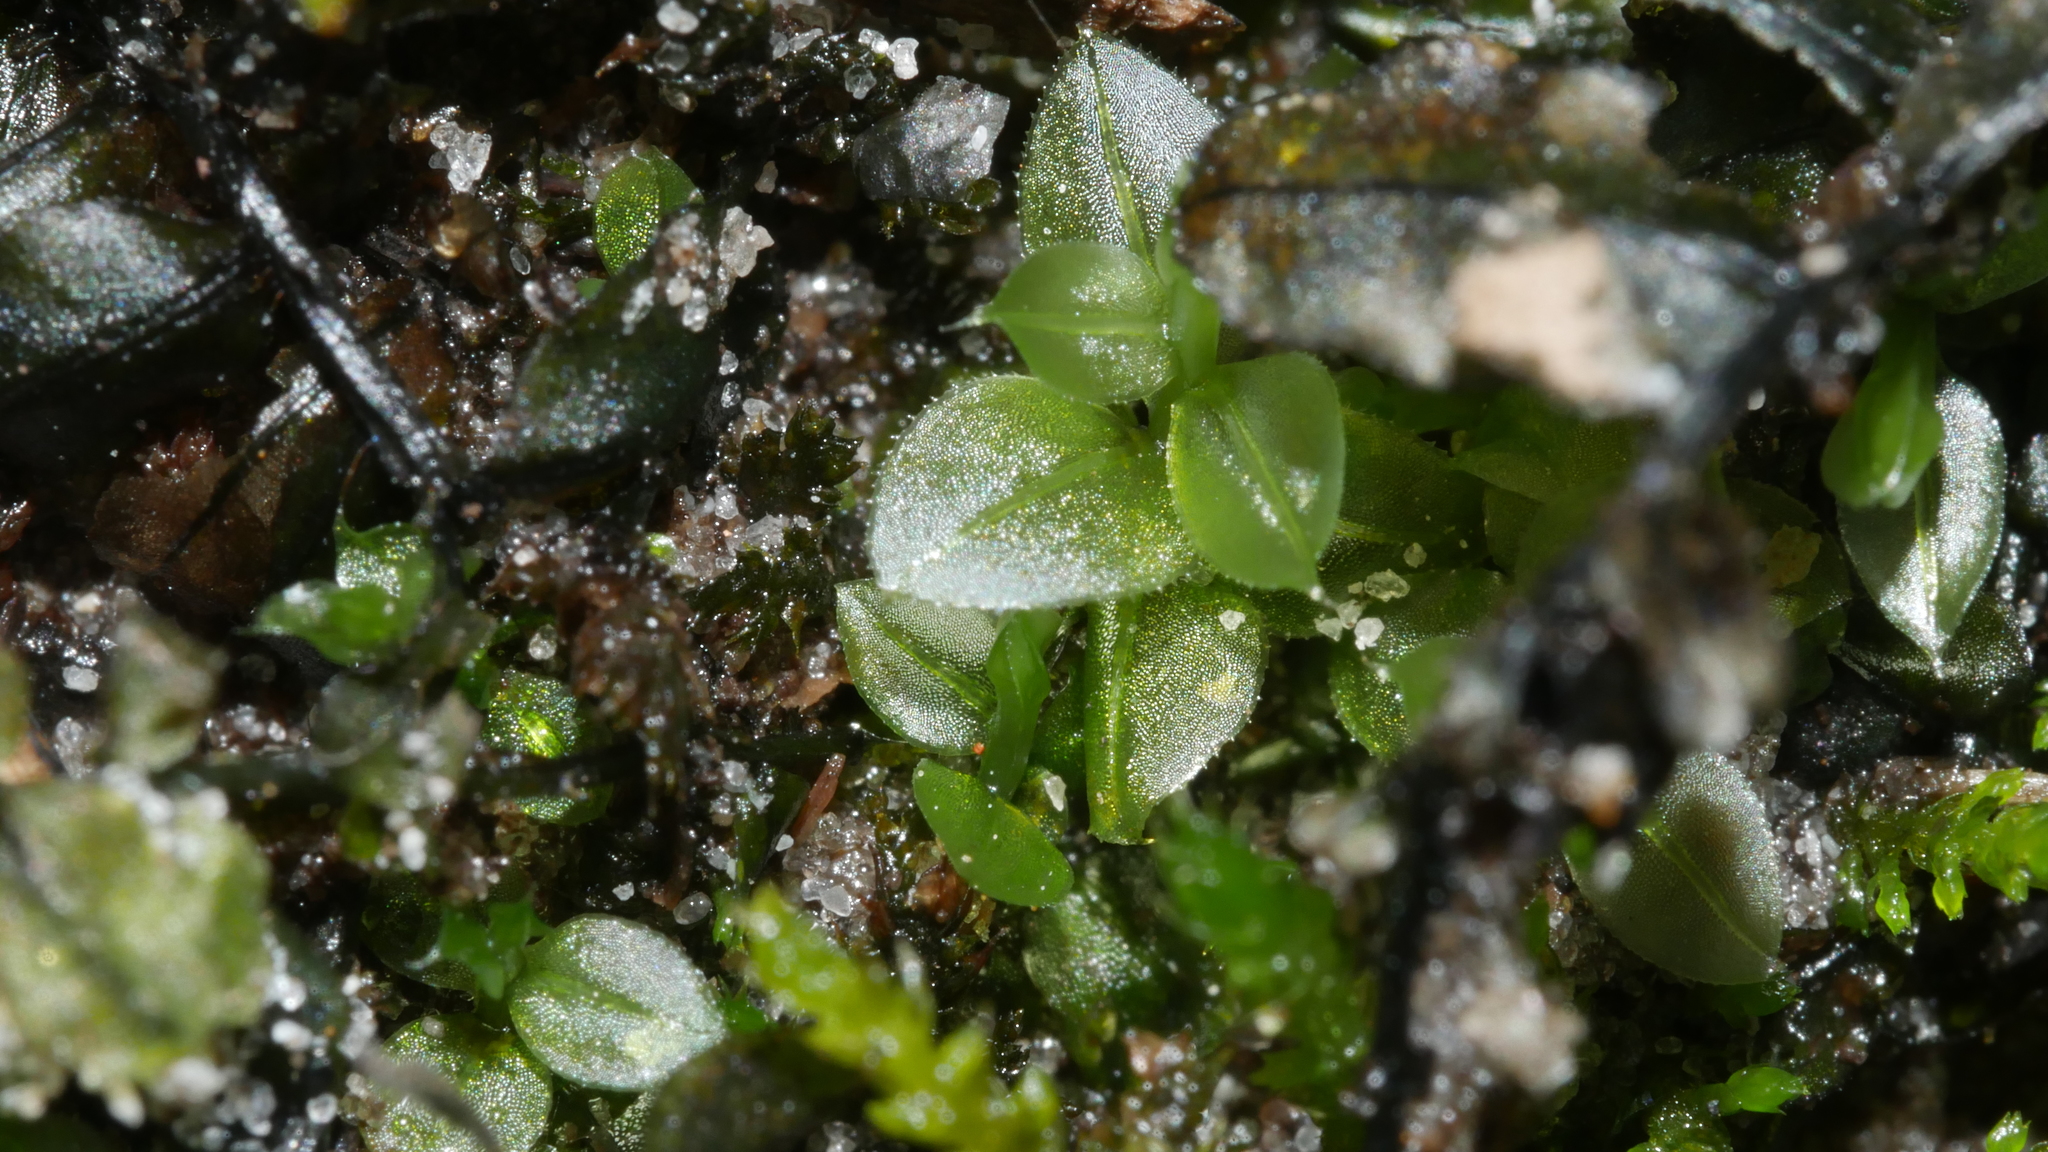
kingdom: Plantae
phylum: Bryophyta
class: Bryopsida
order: Bryales
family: Mniaceae
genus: Plagiomnium
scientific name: Plagiomnium
